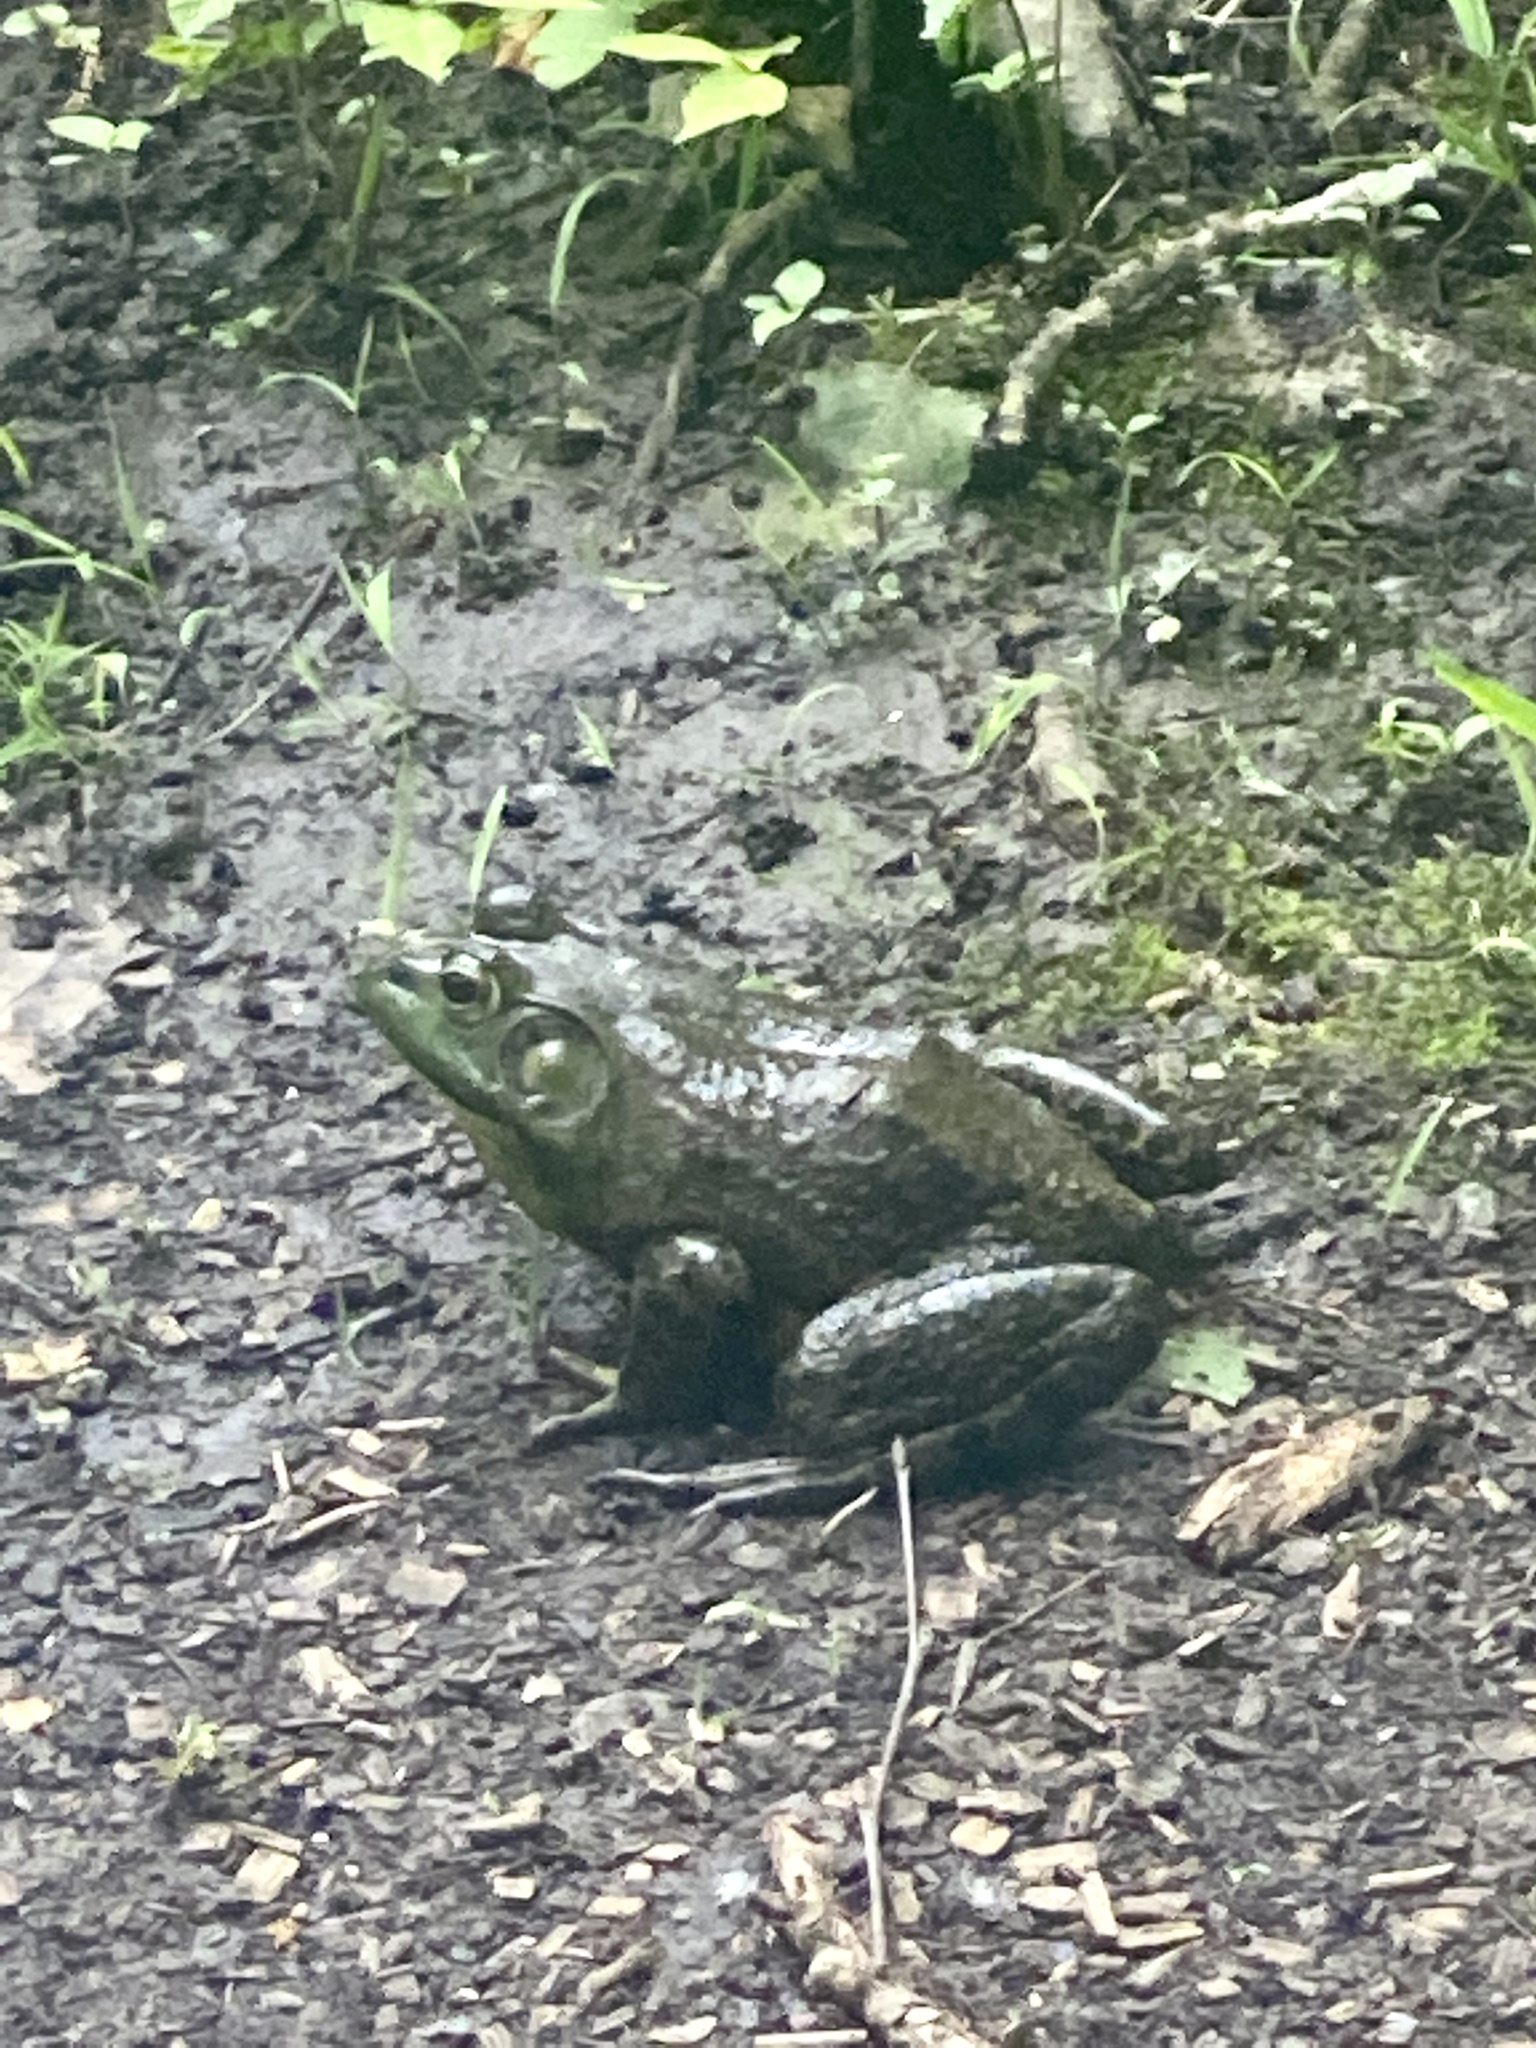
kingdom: Animalia
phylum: Chordata
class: Amphibia
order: Anura
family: Ranidae
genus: Lithobates
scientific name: Lithobates catesbeianus
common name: American bullfrog
